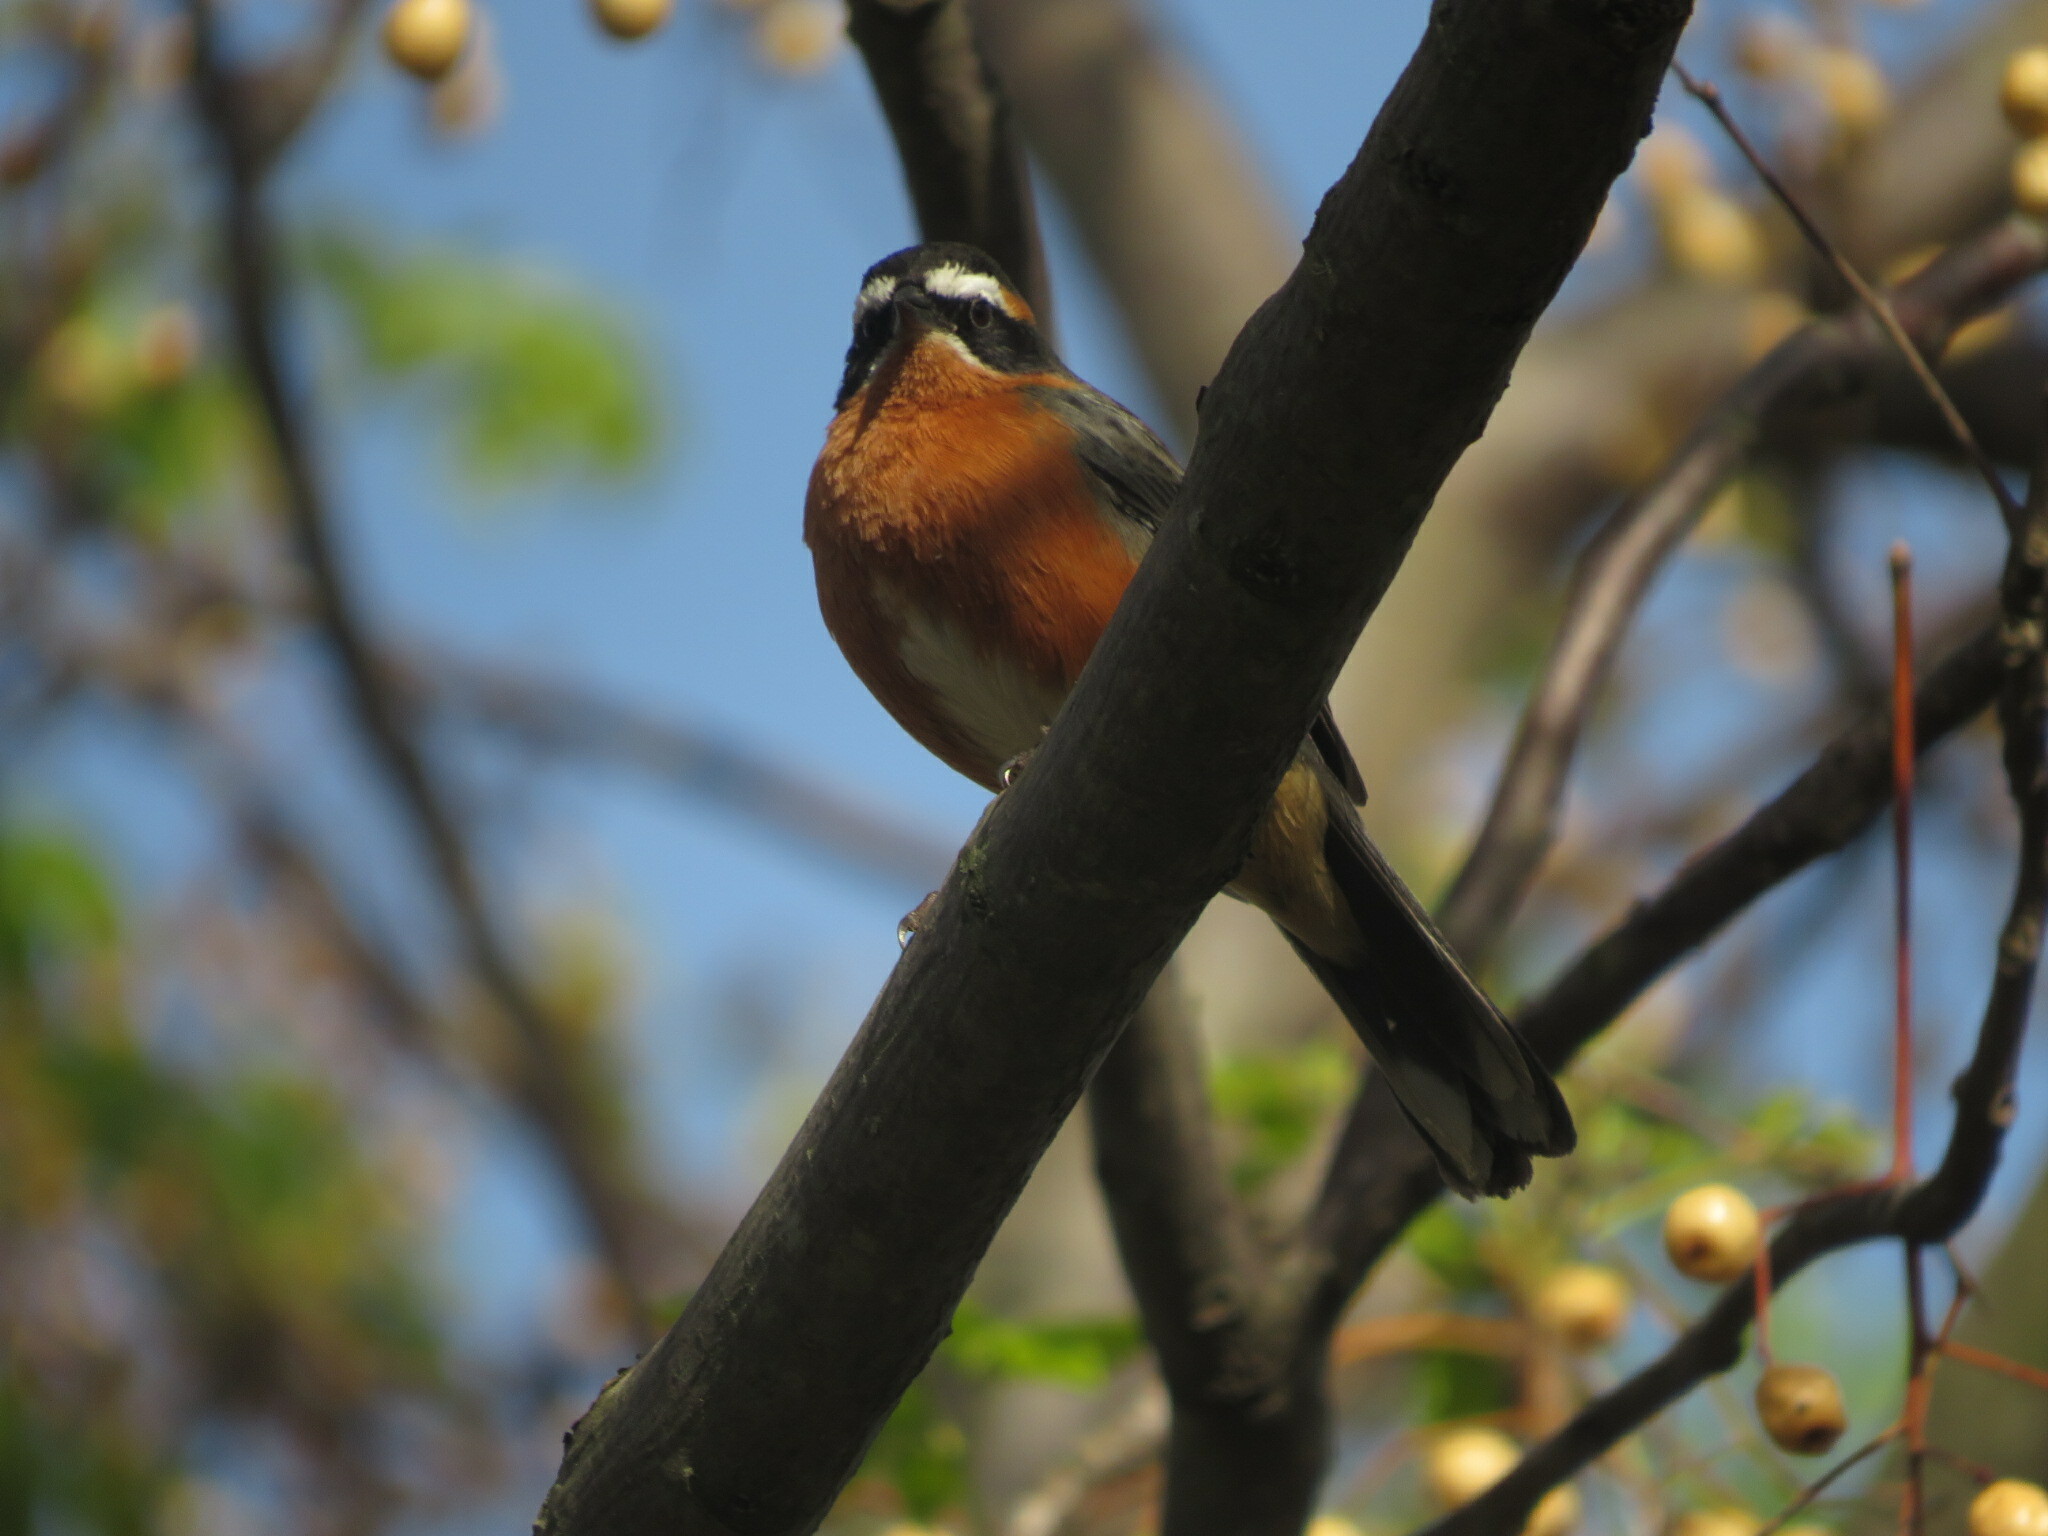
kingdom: Animalia
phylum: Chordata
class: Aves
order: Passeriformes
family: Thraupidae
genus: Poospiza
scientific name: Poospiza nigrorufa
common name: Black-and-rufous warbling finch
